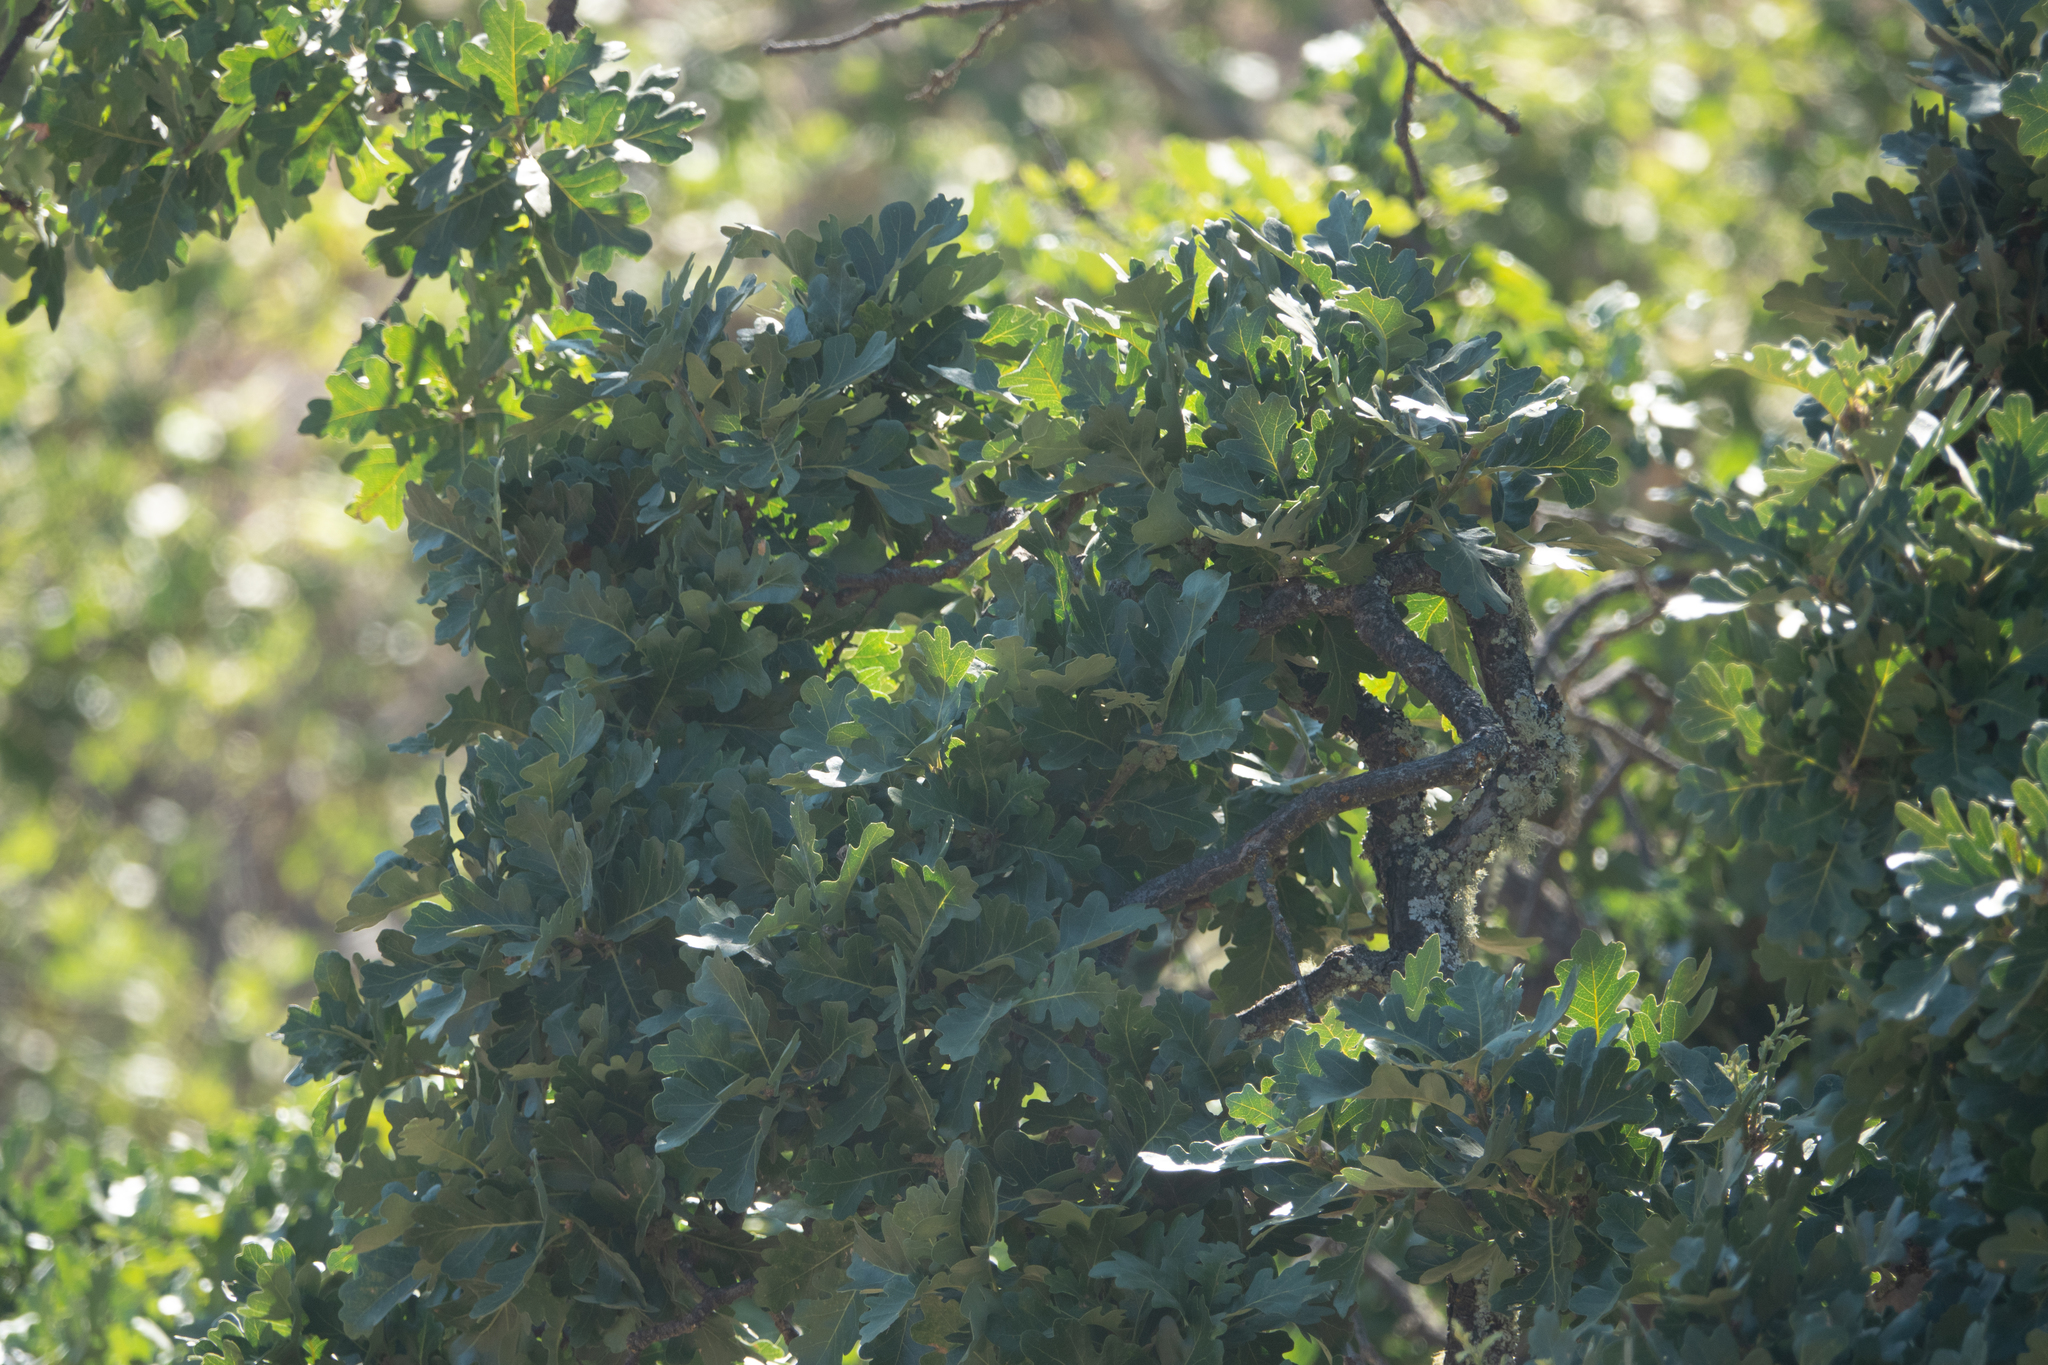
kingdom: Plantae
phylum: Tracheophyta
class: Magnoliopsida
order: Fagales
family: Fagaceae
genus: Quercus
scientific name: Quercus lobata
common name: Valley oak
